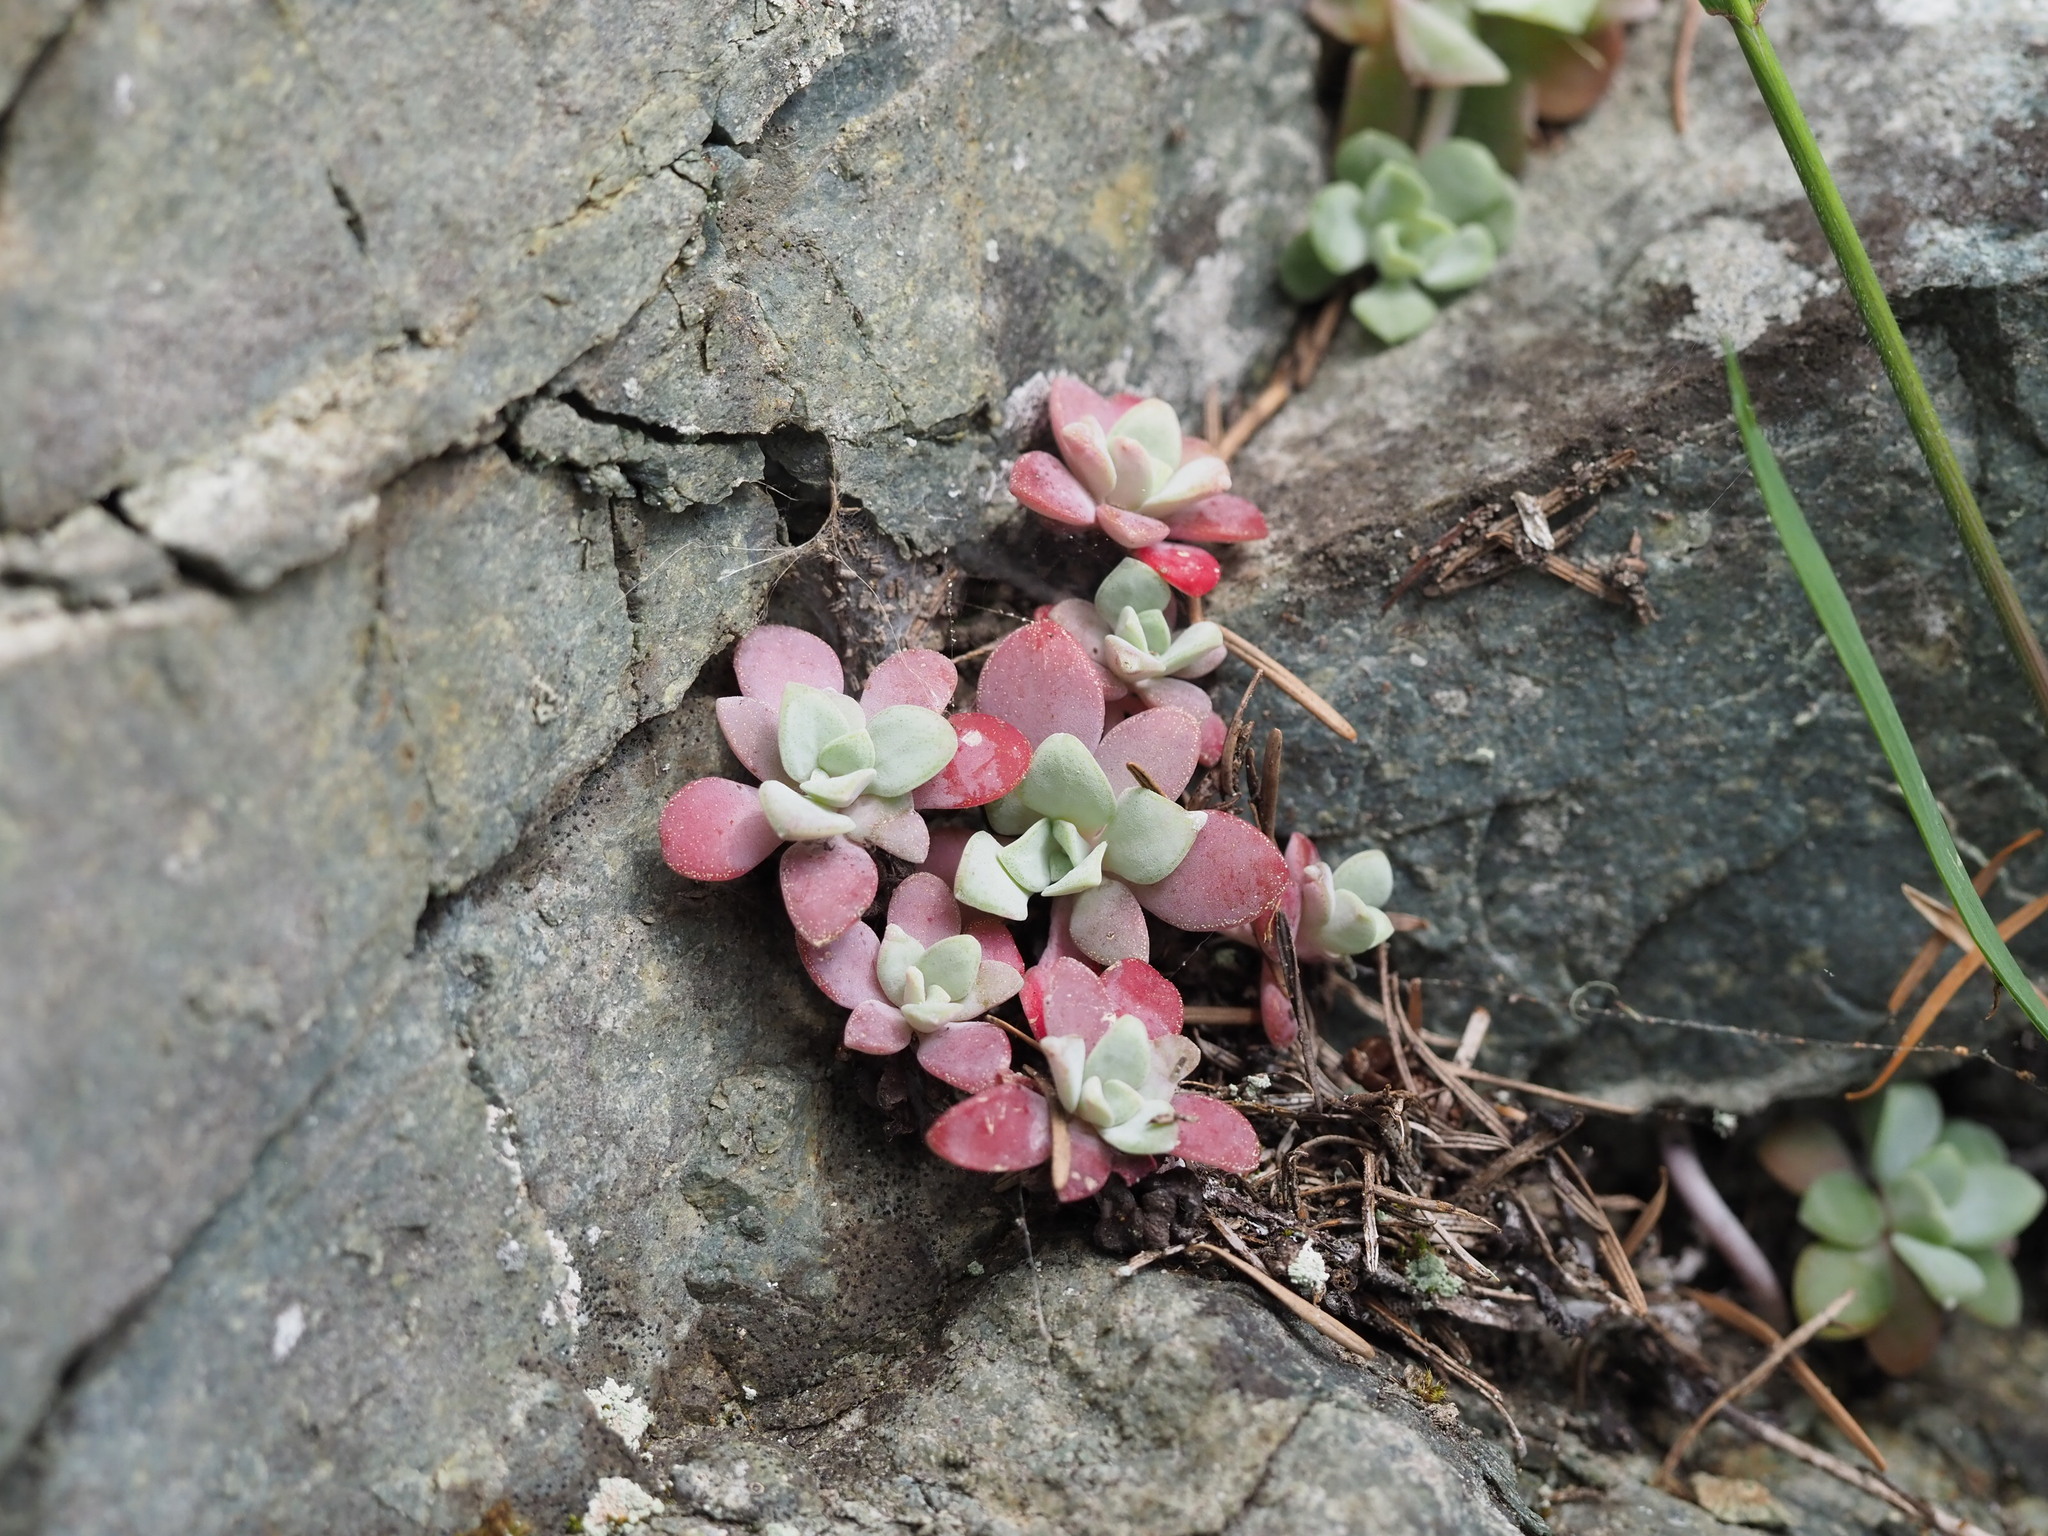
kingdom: Plantae
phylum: Tracheophyta
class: Magnoliopsida
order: Saxifragales
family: Crassulaceae
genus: Sedum
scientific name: Sedum spathulifolium
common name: Colorado stonecrop
